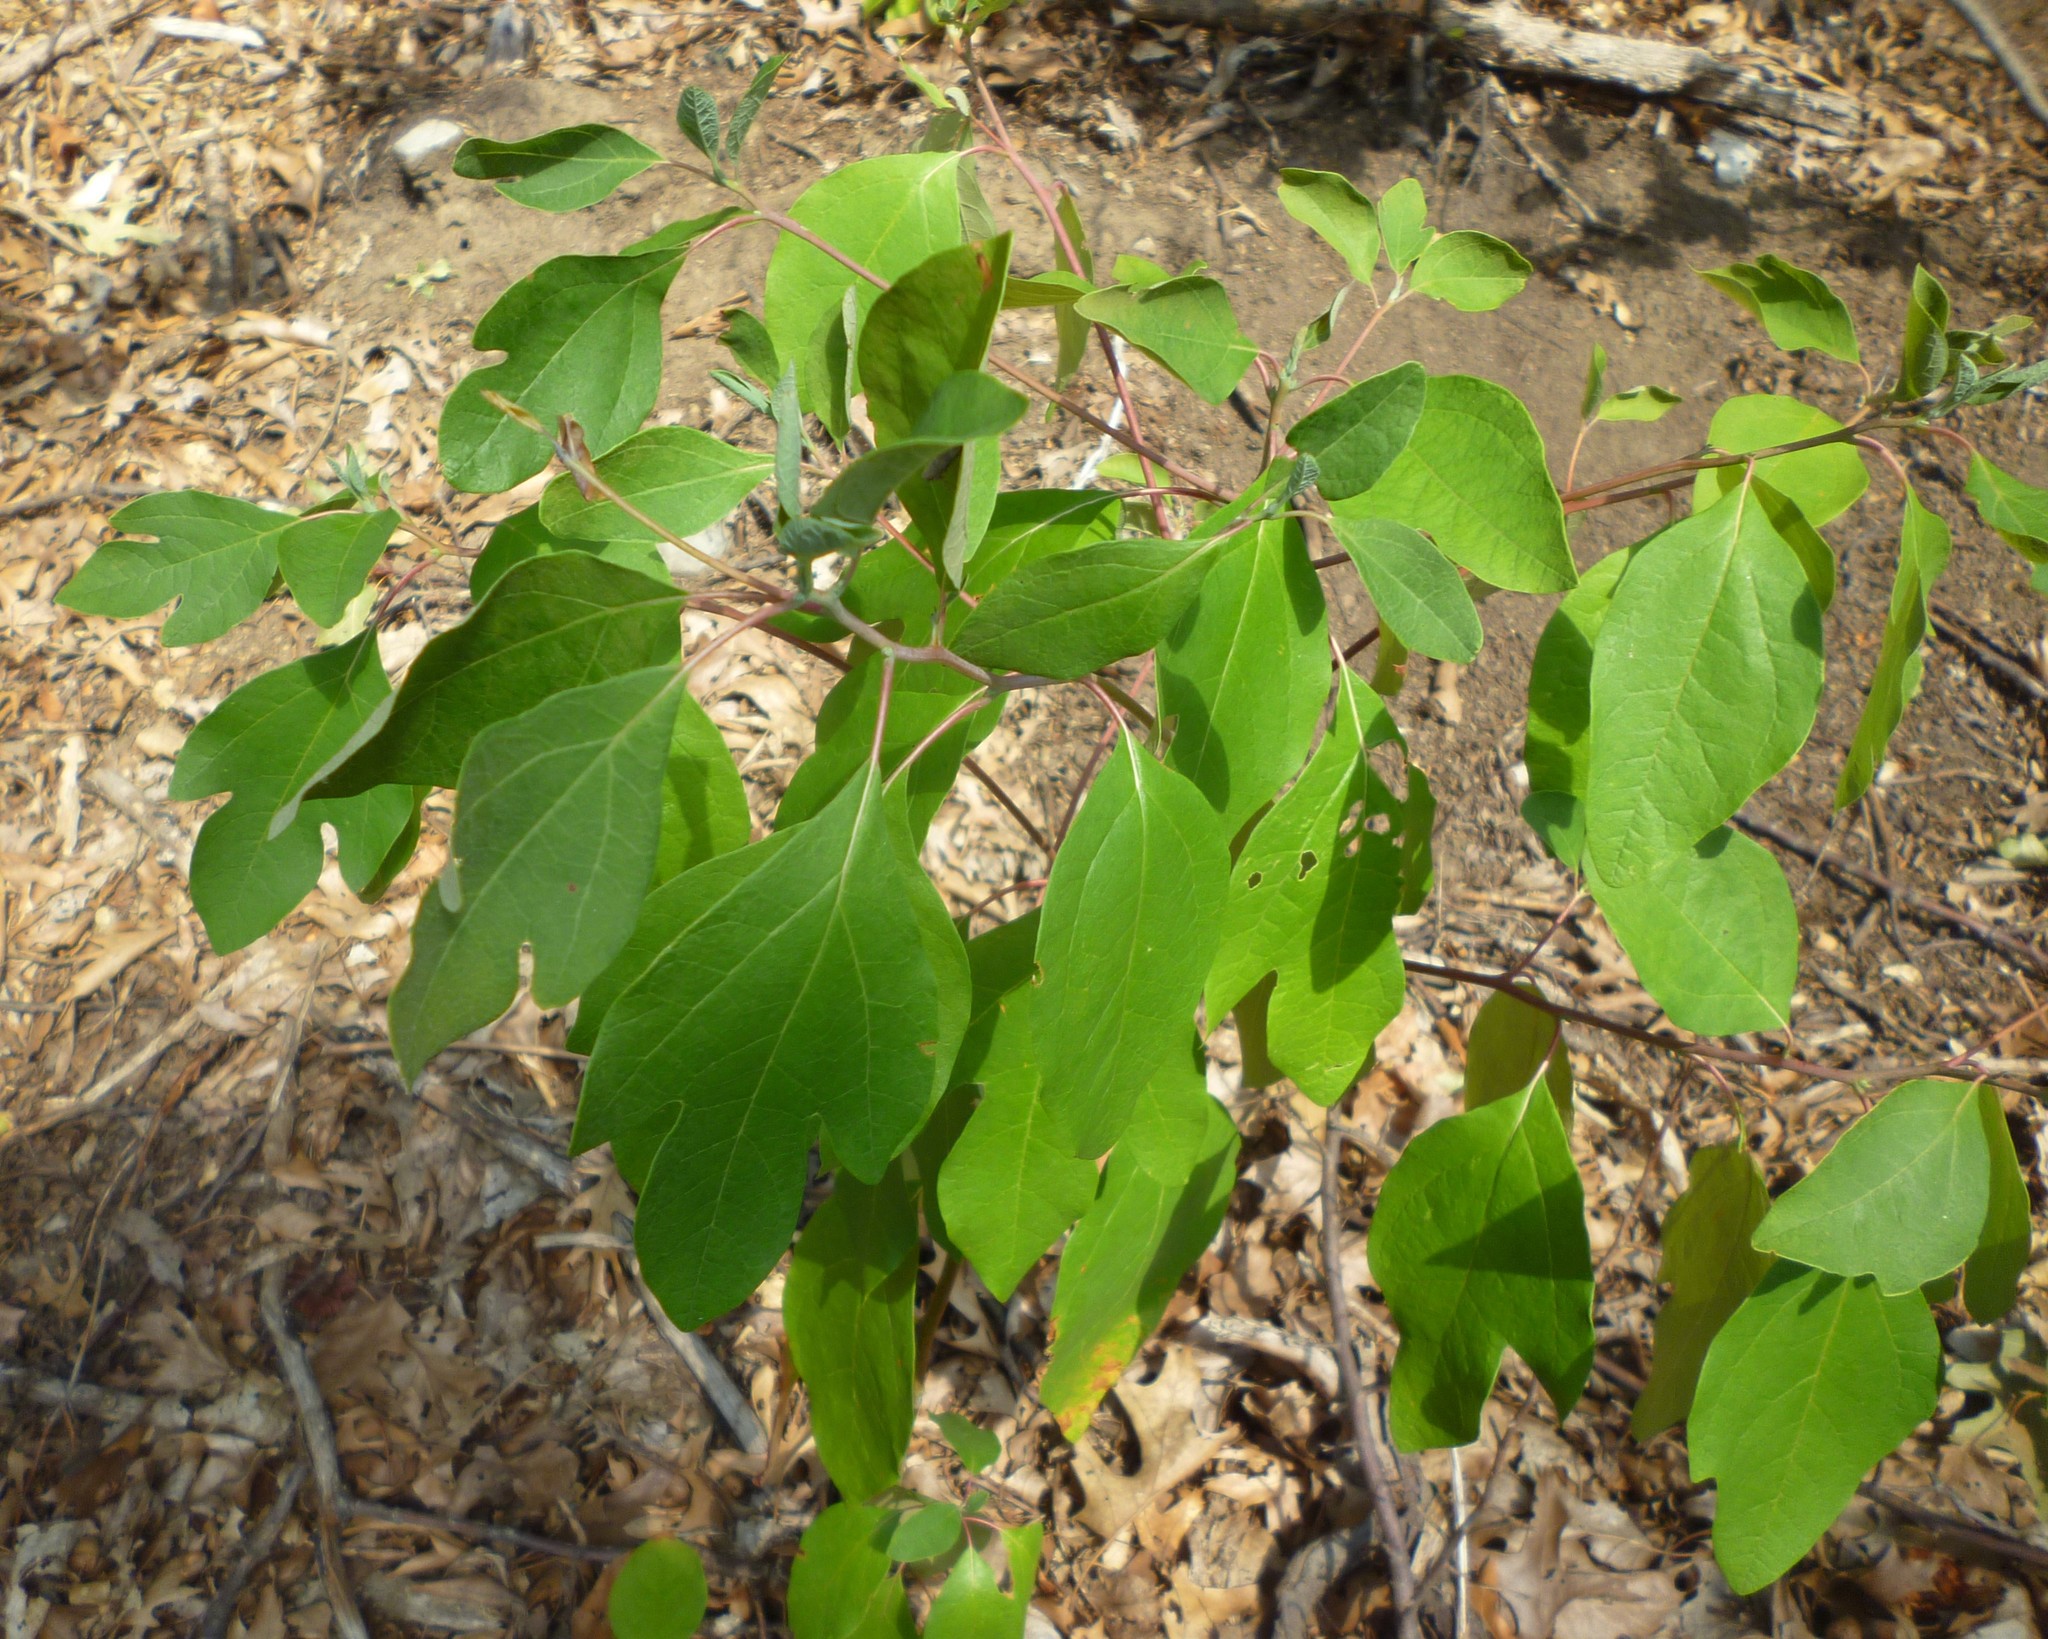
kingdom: Plantae
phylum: Tracheophyta
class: Magnoliopsida
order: Laurales
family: Lauraceae
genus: Sassafras
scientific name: Sassafras albidum
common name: Sassafras
